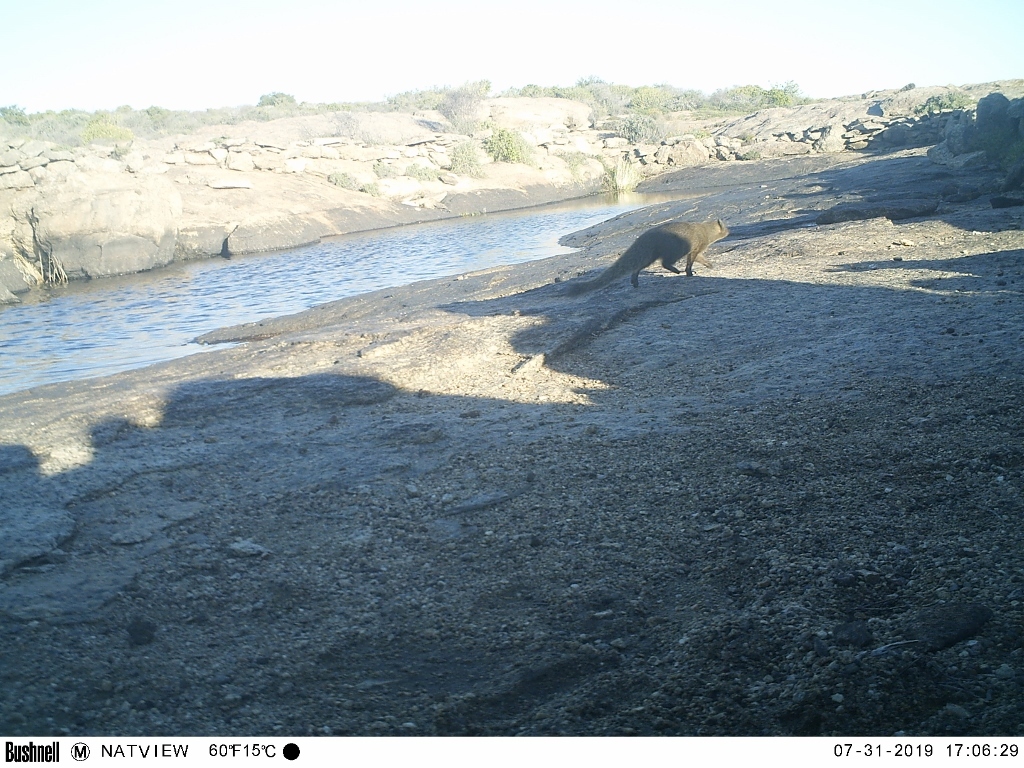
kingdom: Animalia
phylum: Chordata
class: Mammalia
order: Carnivora
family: Herpestidae
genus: Galerella
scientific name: Galerella pulverulenta
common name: Cape gray mongoose
